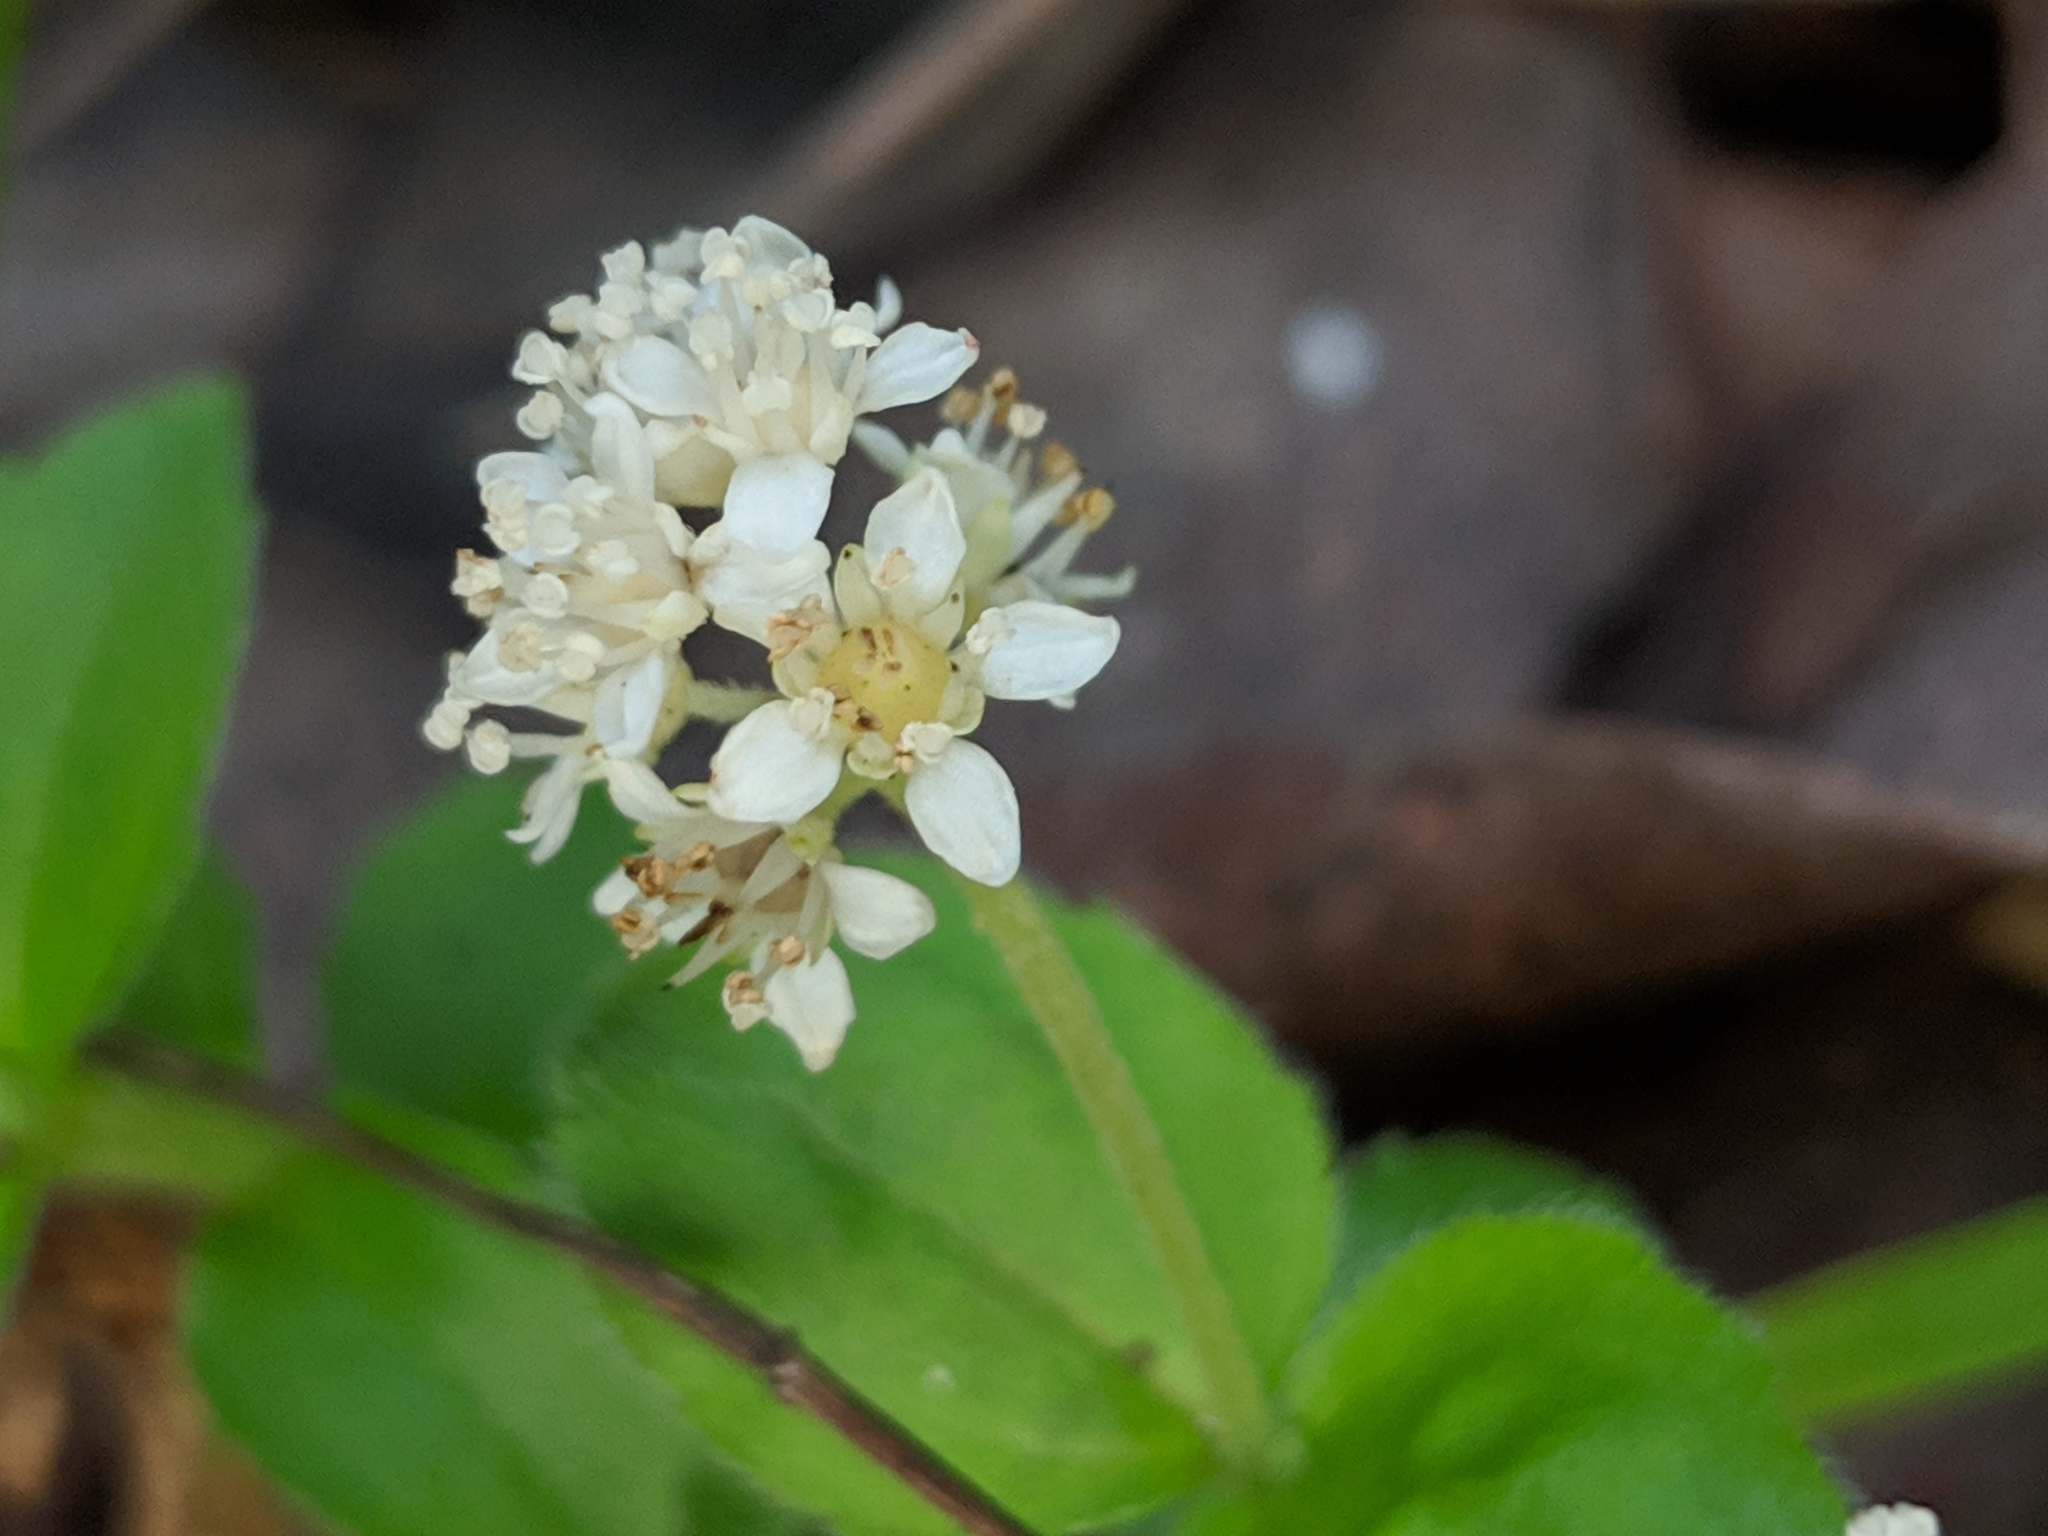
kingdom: Plantae
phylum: Tracheophyta
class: Magnoliopsida
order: Cornales
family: Hydrangeaceae
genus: Whipplea
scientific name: Whipplea modesta
